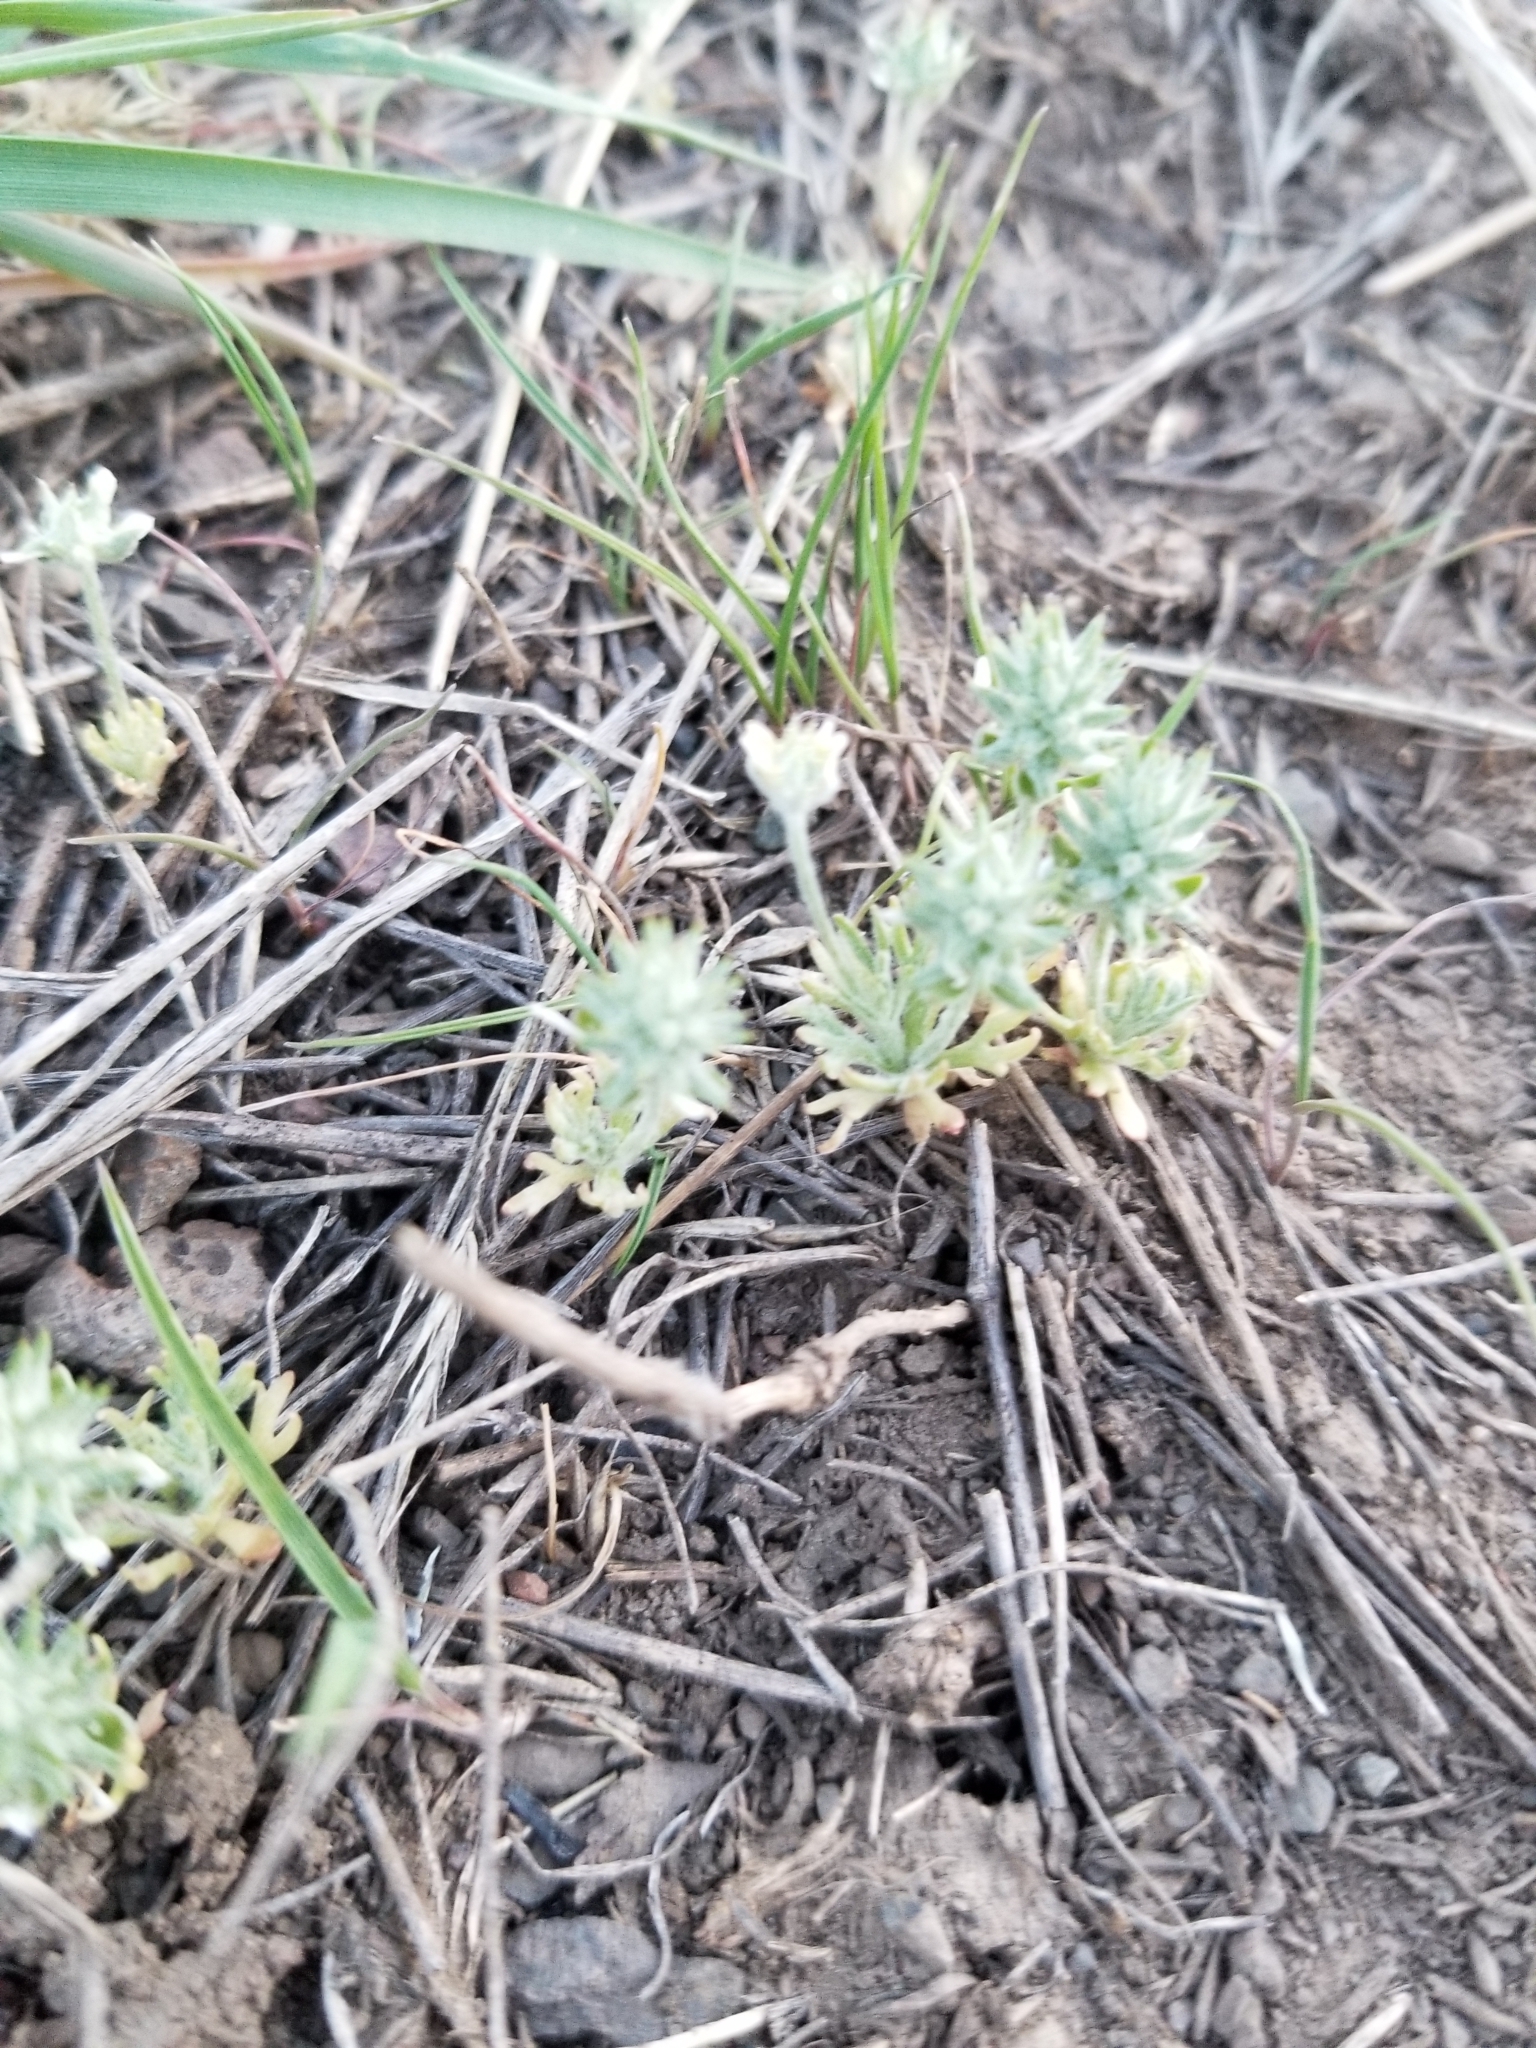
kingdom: Plantae
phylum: Tracheophyta
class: Magnoliopsida
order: Ranunculales
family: Ranunculaceae
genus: Ceratocephala
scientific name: Ceratocephala orthoceras
